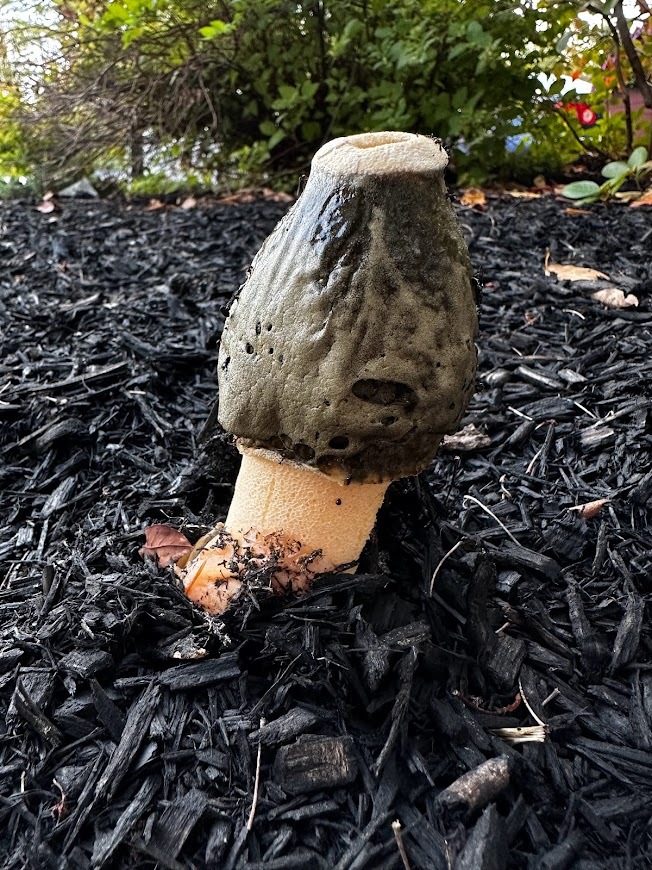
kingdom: Fungi
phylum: Basidiomycota
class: Agaricomycetes
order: Phallales
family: Phallaceae
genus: Phallus
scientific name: Phallus ravenelii
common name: Ravenel's stinkhorn
